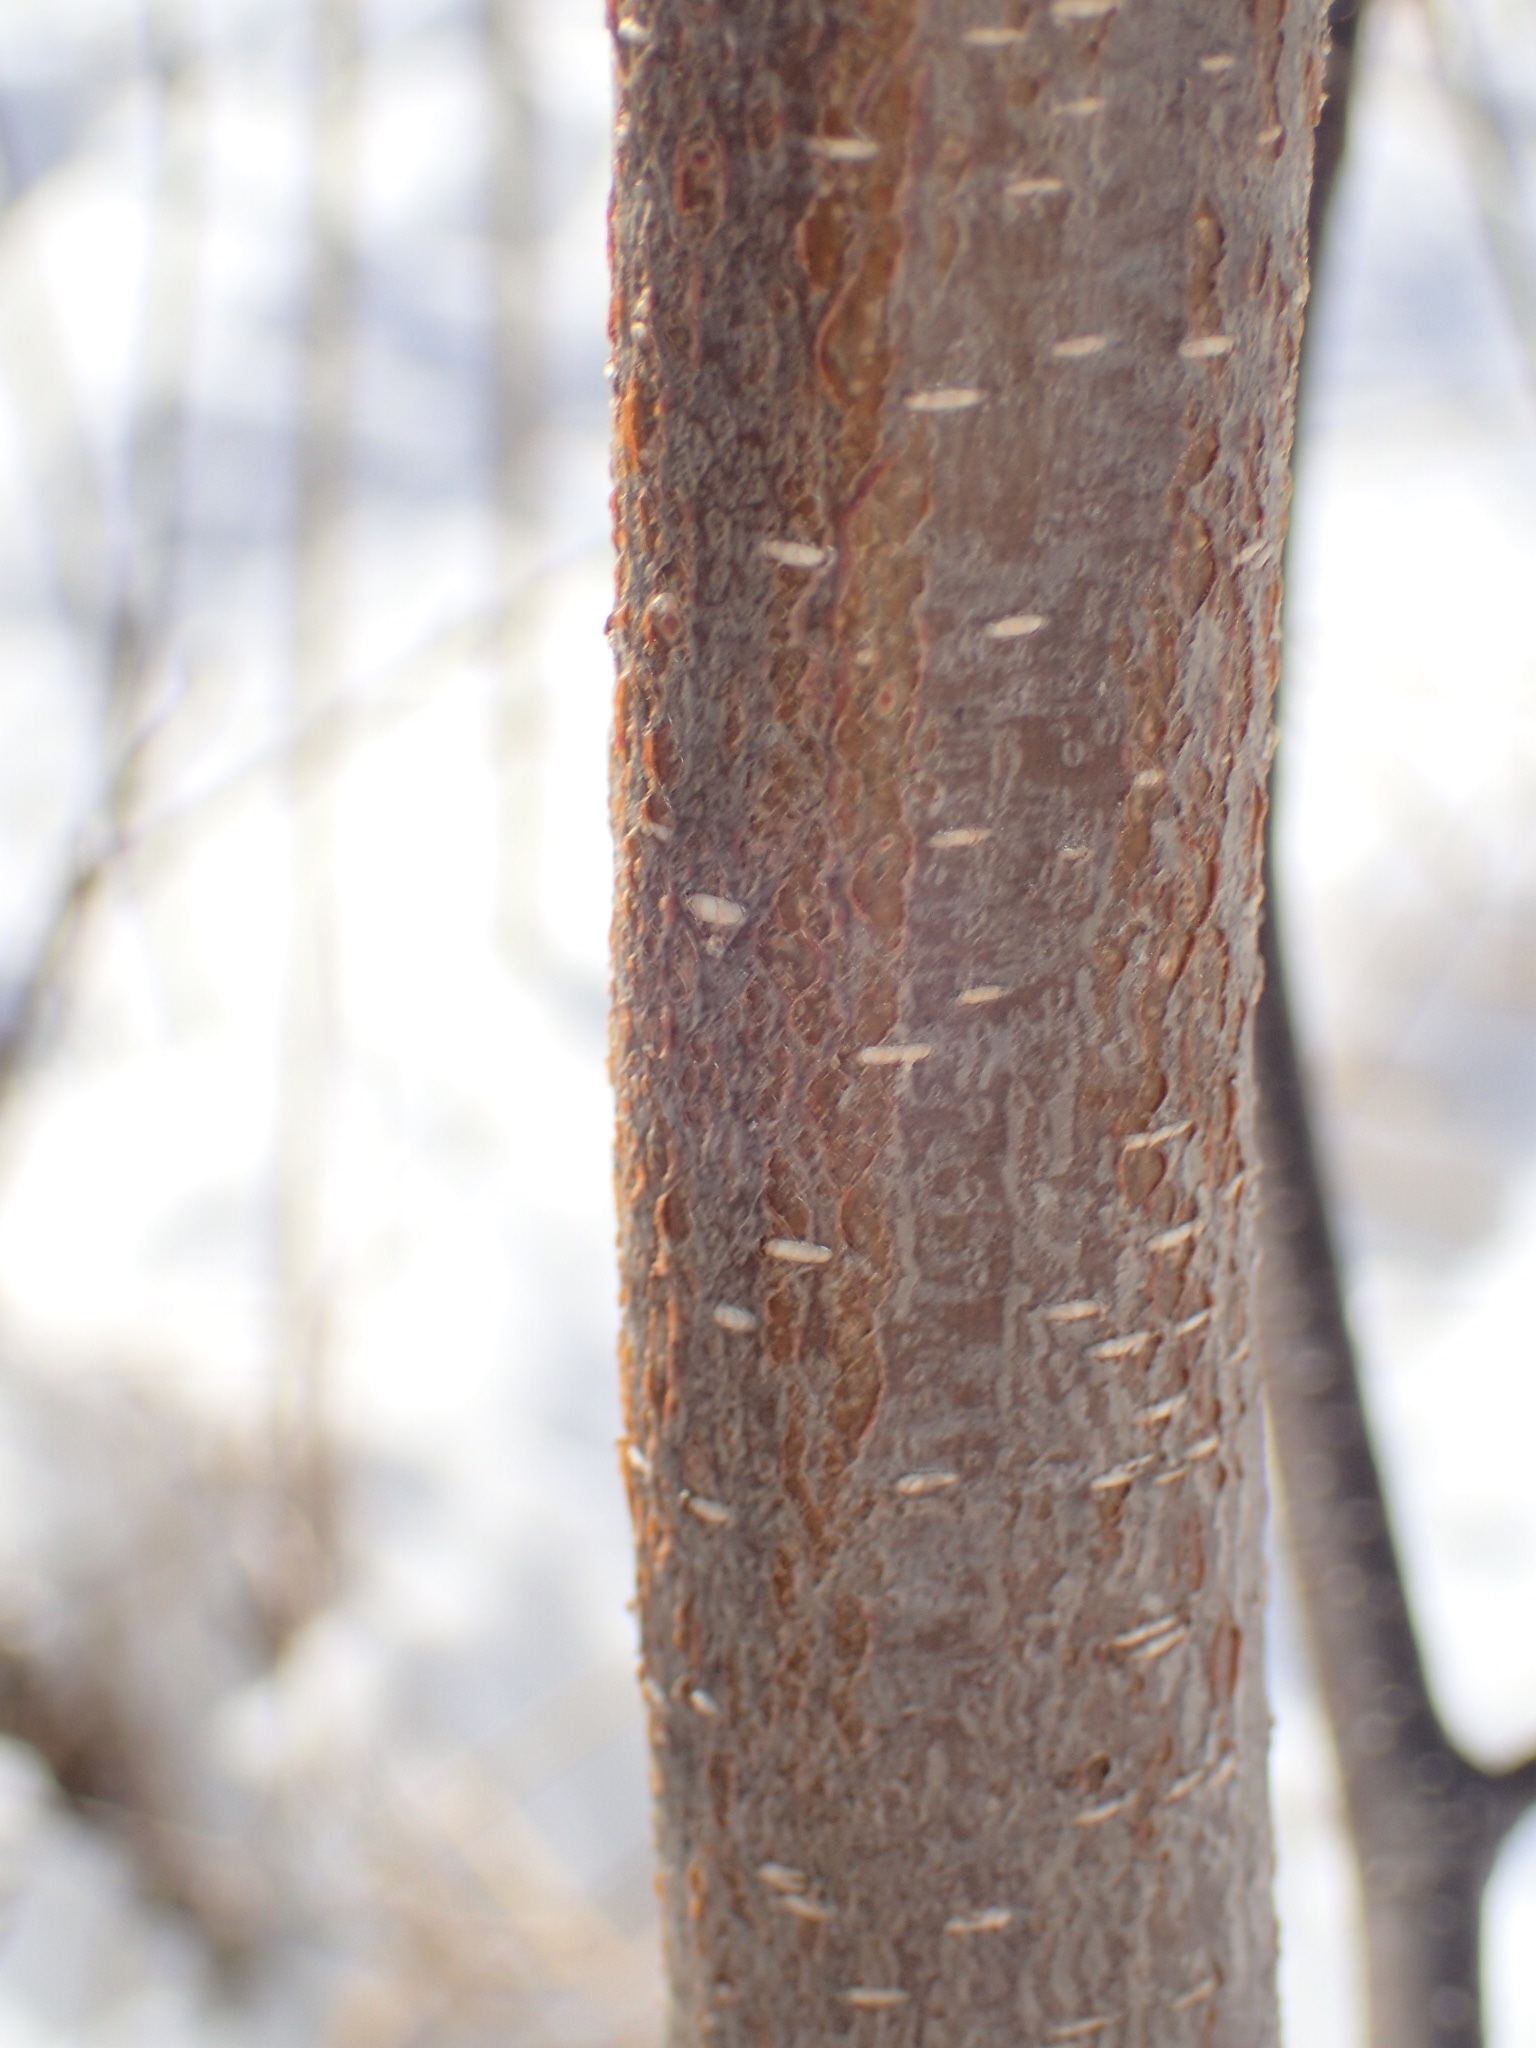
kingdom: Plantae
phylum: Tracheophyta
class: Magnoliopsida
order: Fagales
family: Betulaceae
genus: Alnus
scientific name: Alnus incana
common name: Grey alder
